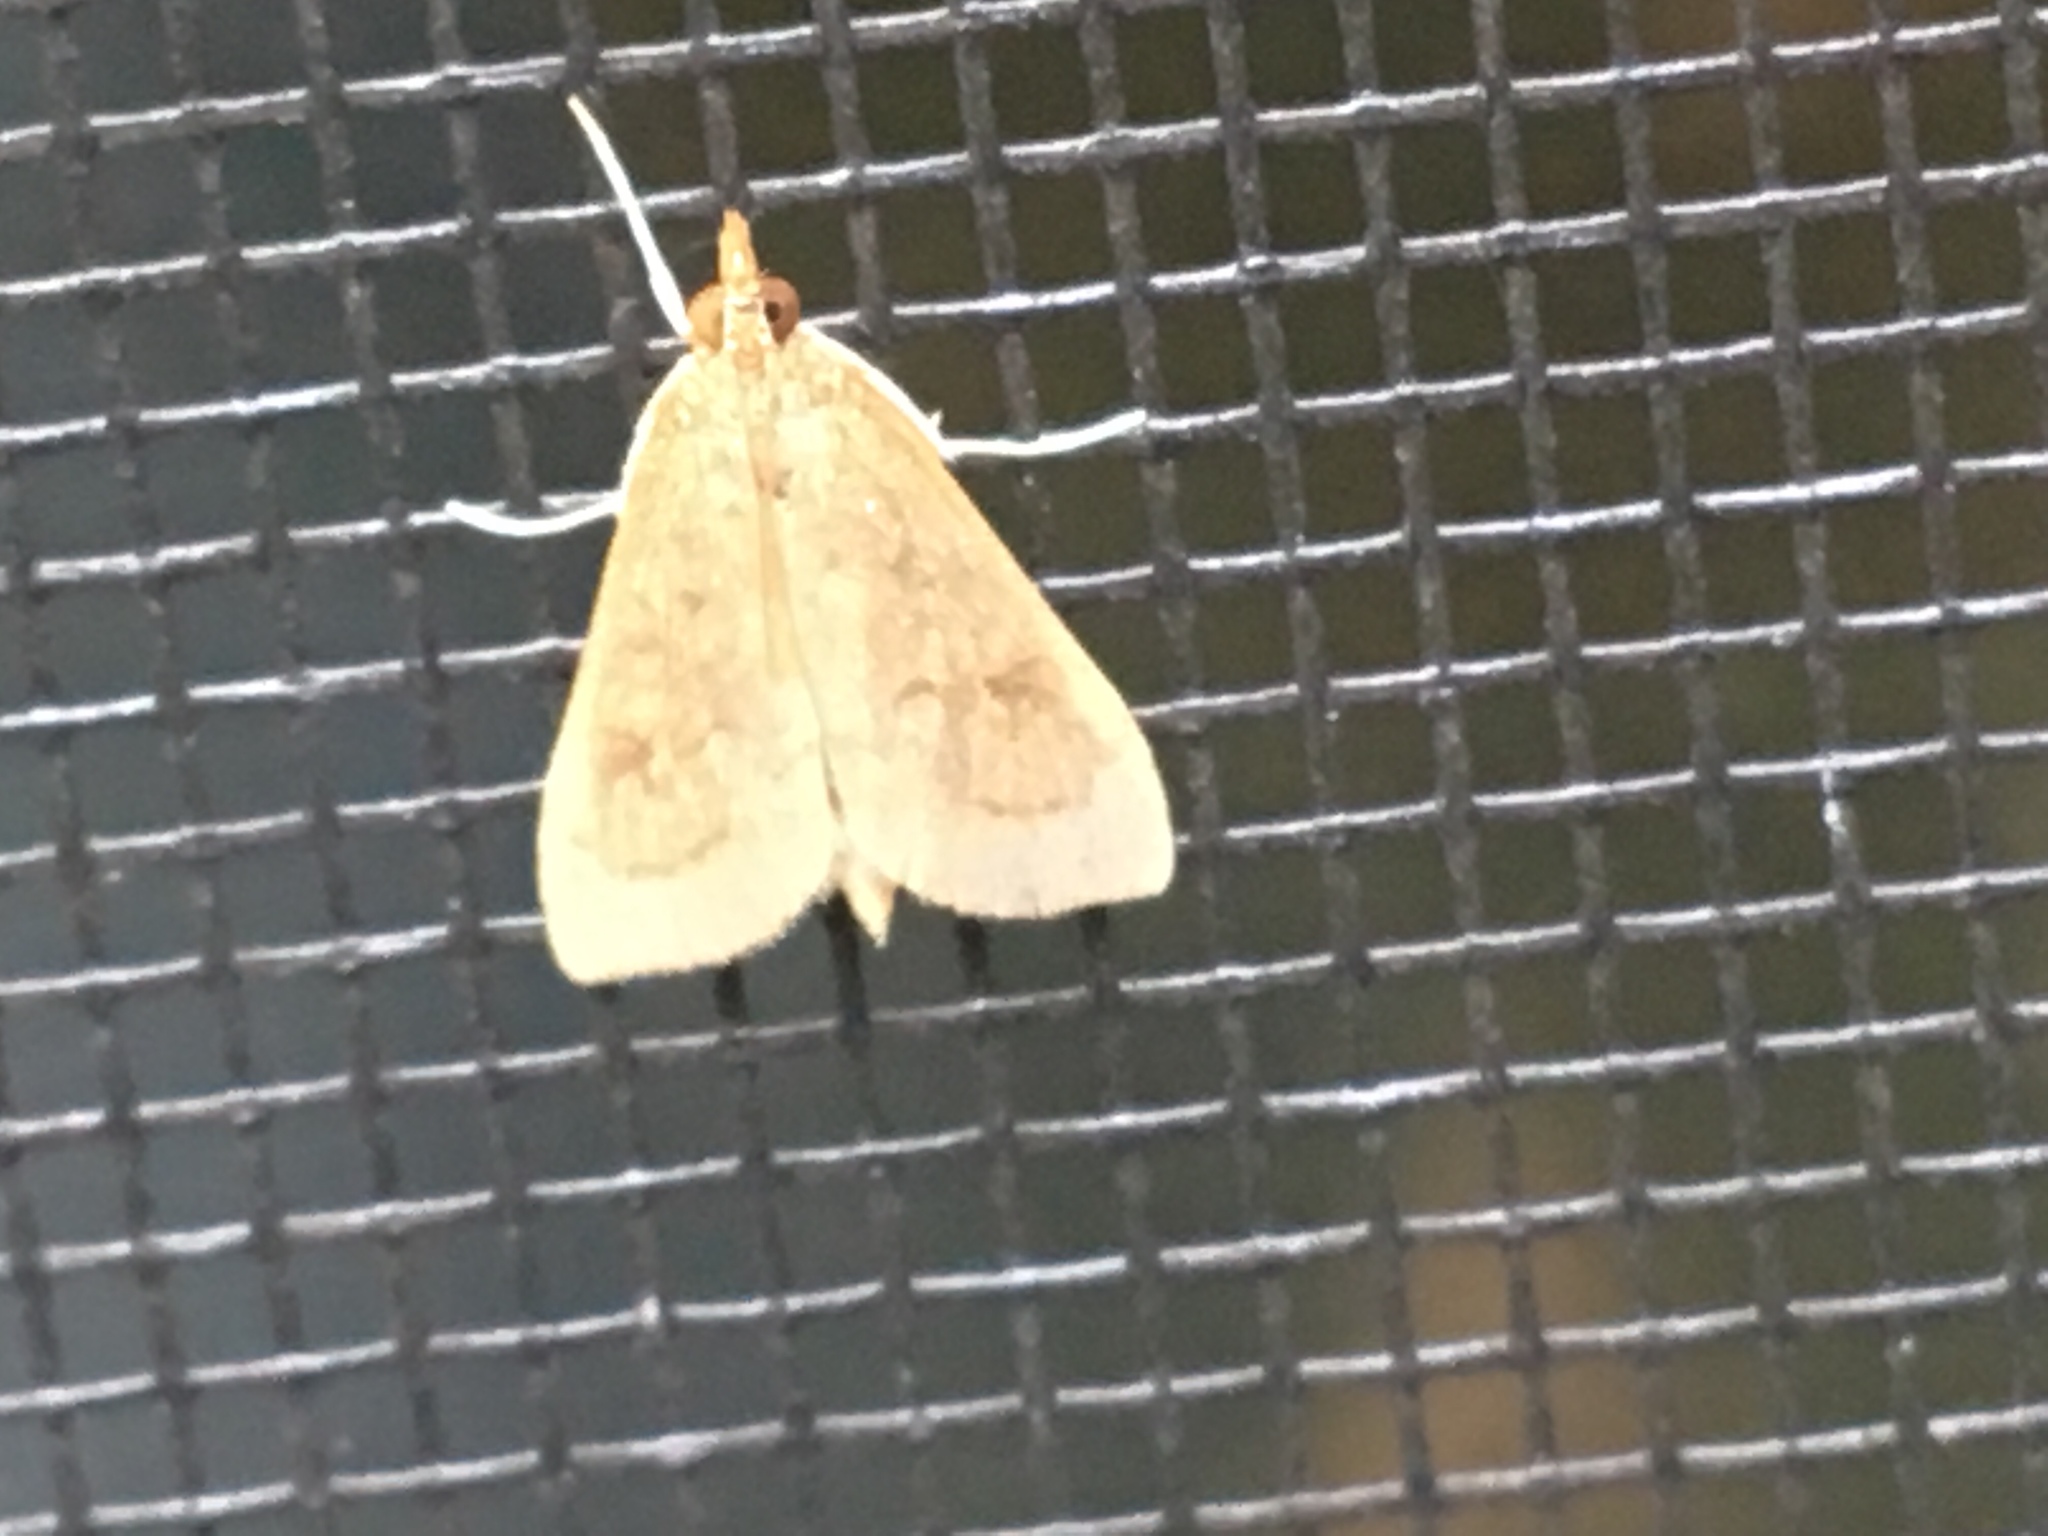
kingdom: Animalia
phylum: Arthropoda
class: Insecta
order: Lepidoptera
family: Crambidae
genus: Udea
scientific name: Udea rubigalis
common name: Celery leaftier moth
